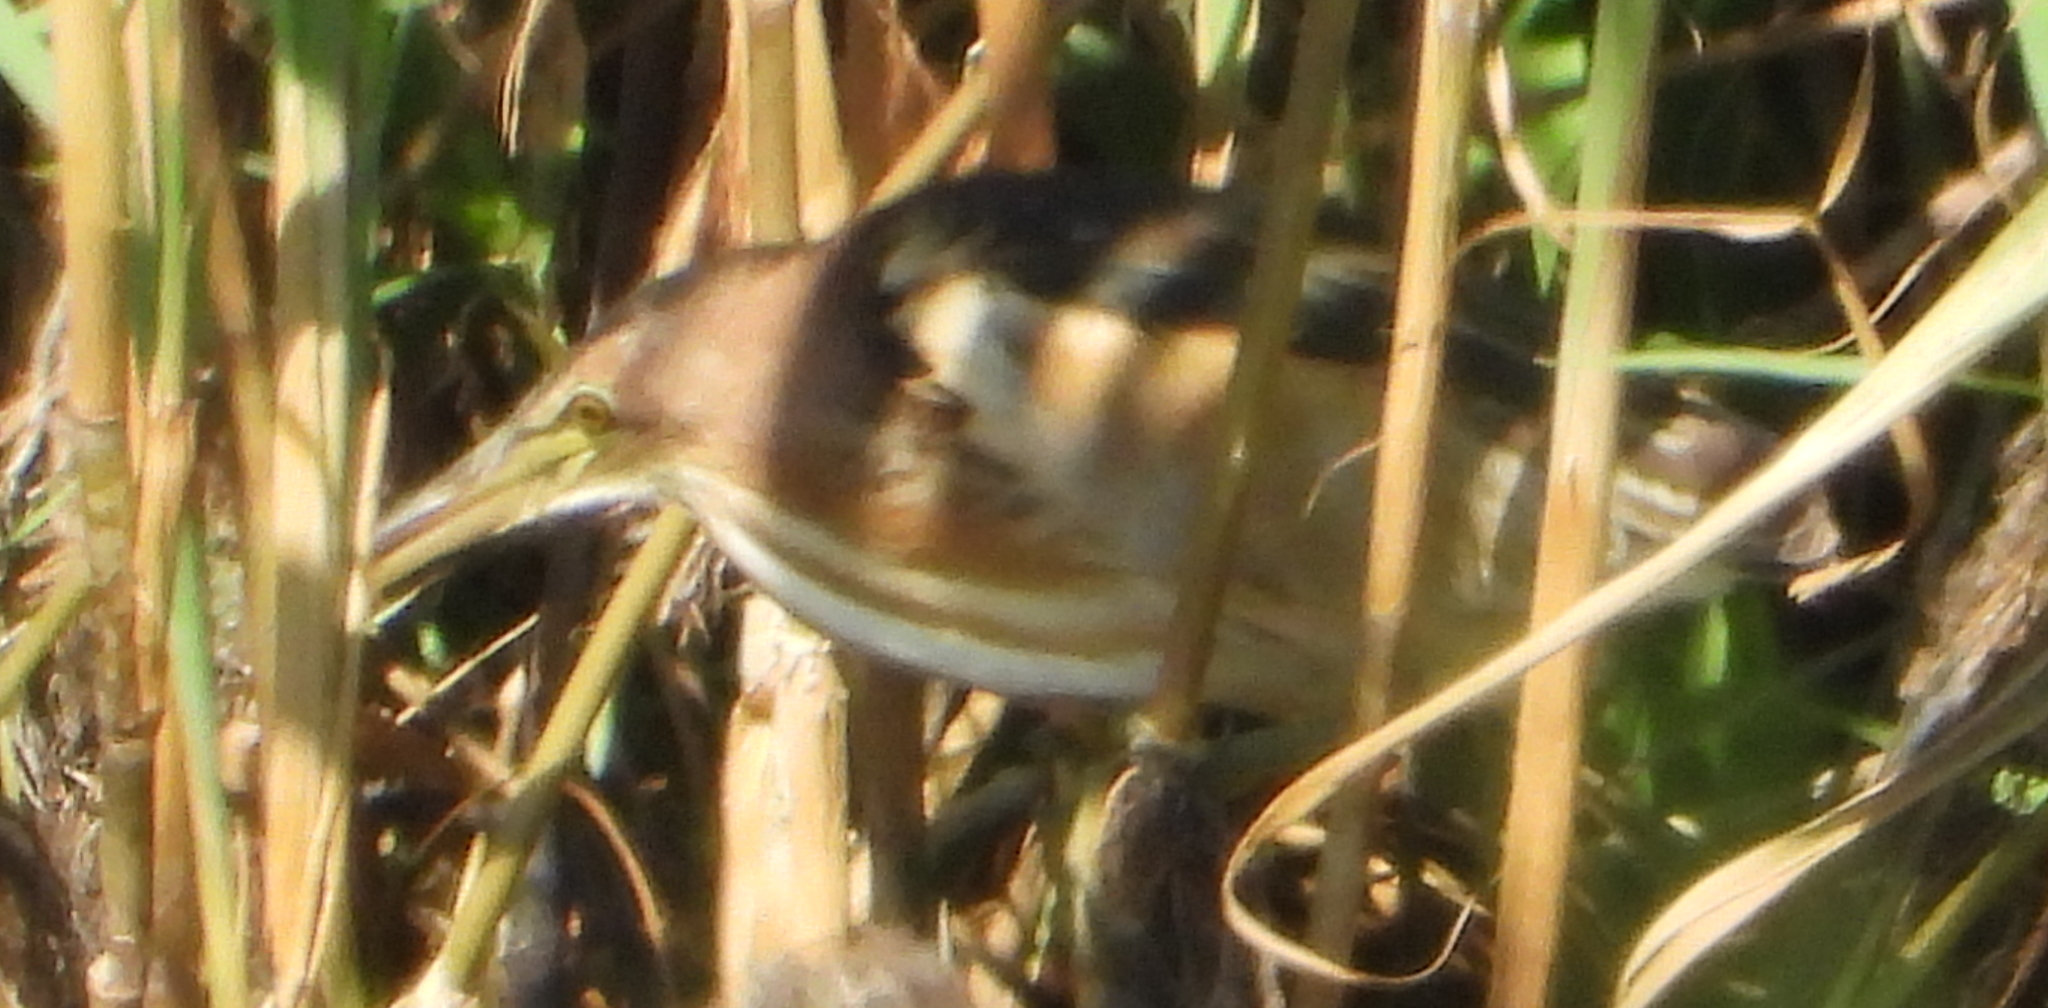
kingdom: Animalia
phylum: Chordata
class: Aves
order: Pelecaniformes
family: Ardeidae
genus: Ixobrychus
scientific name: Ixobrychus minutus
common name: Little bittern
